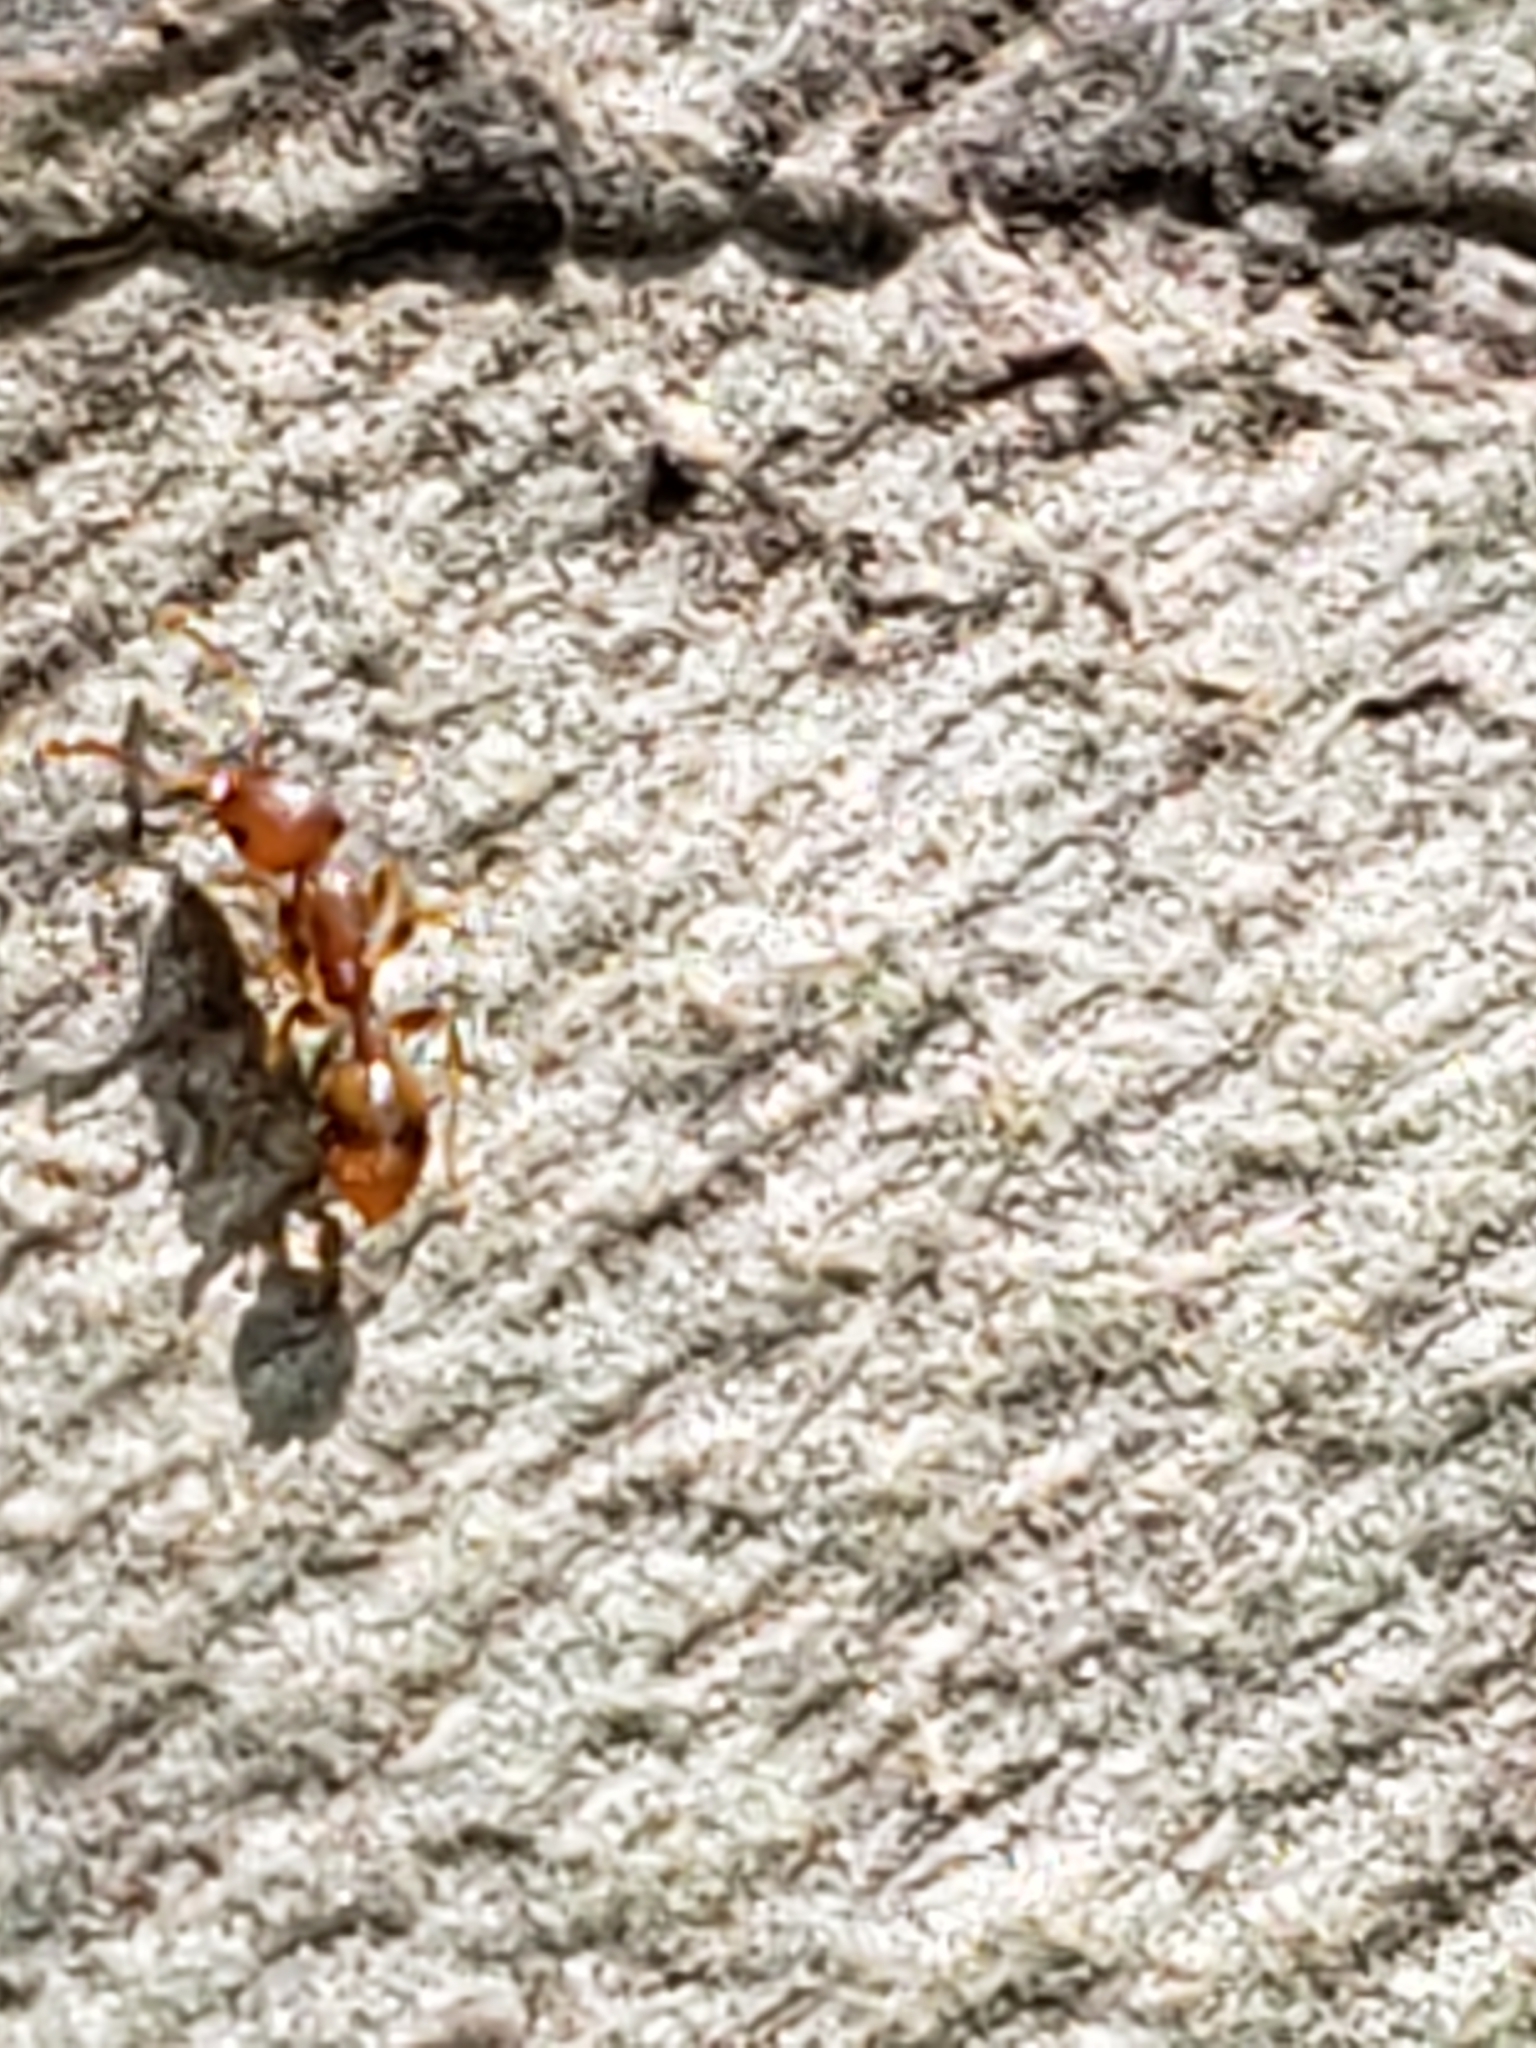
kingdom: Animalia
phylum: Arthropoda
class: Insecta
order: Hymenoptera
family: Formicidae
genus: Temnothorax
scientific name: Temnothorax curvispinosus
